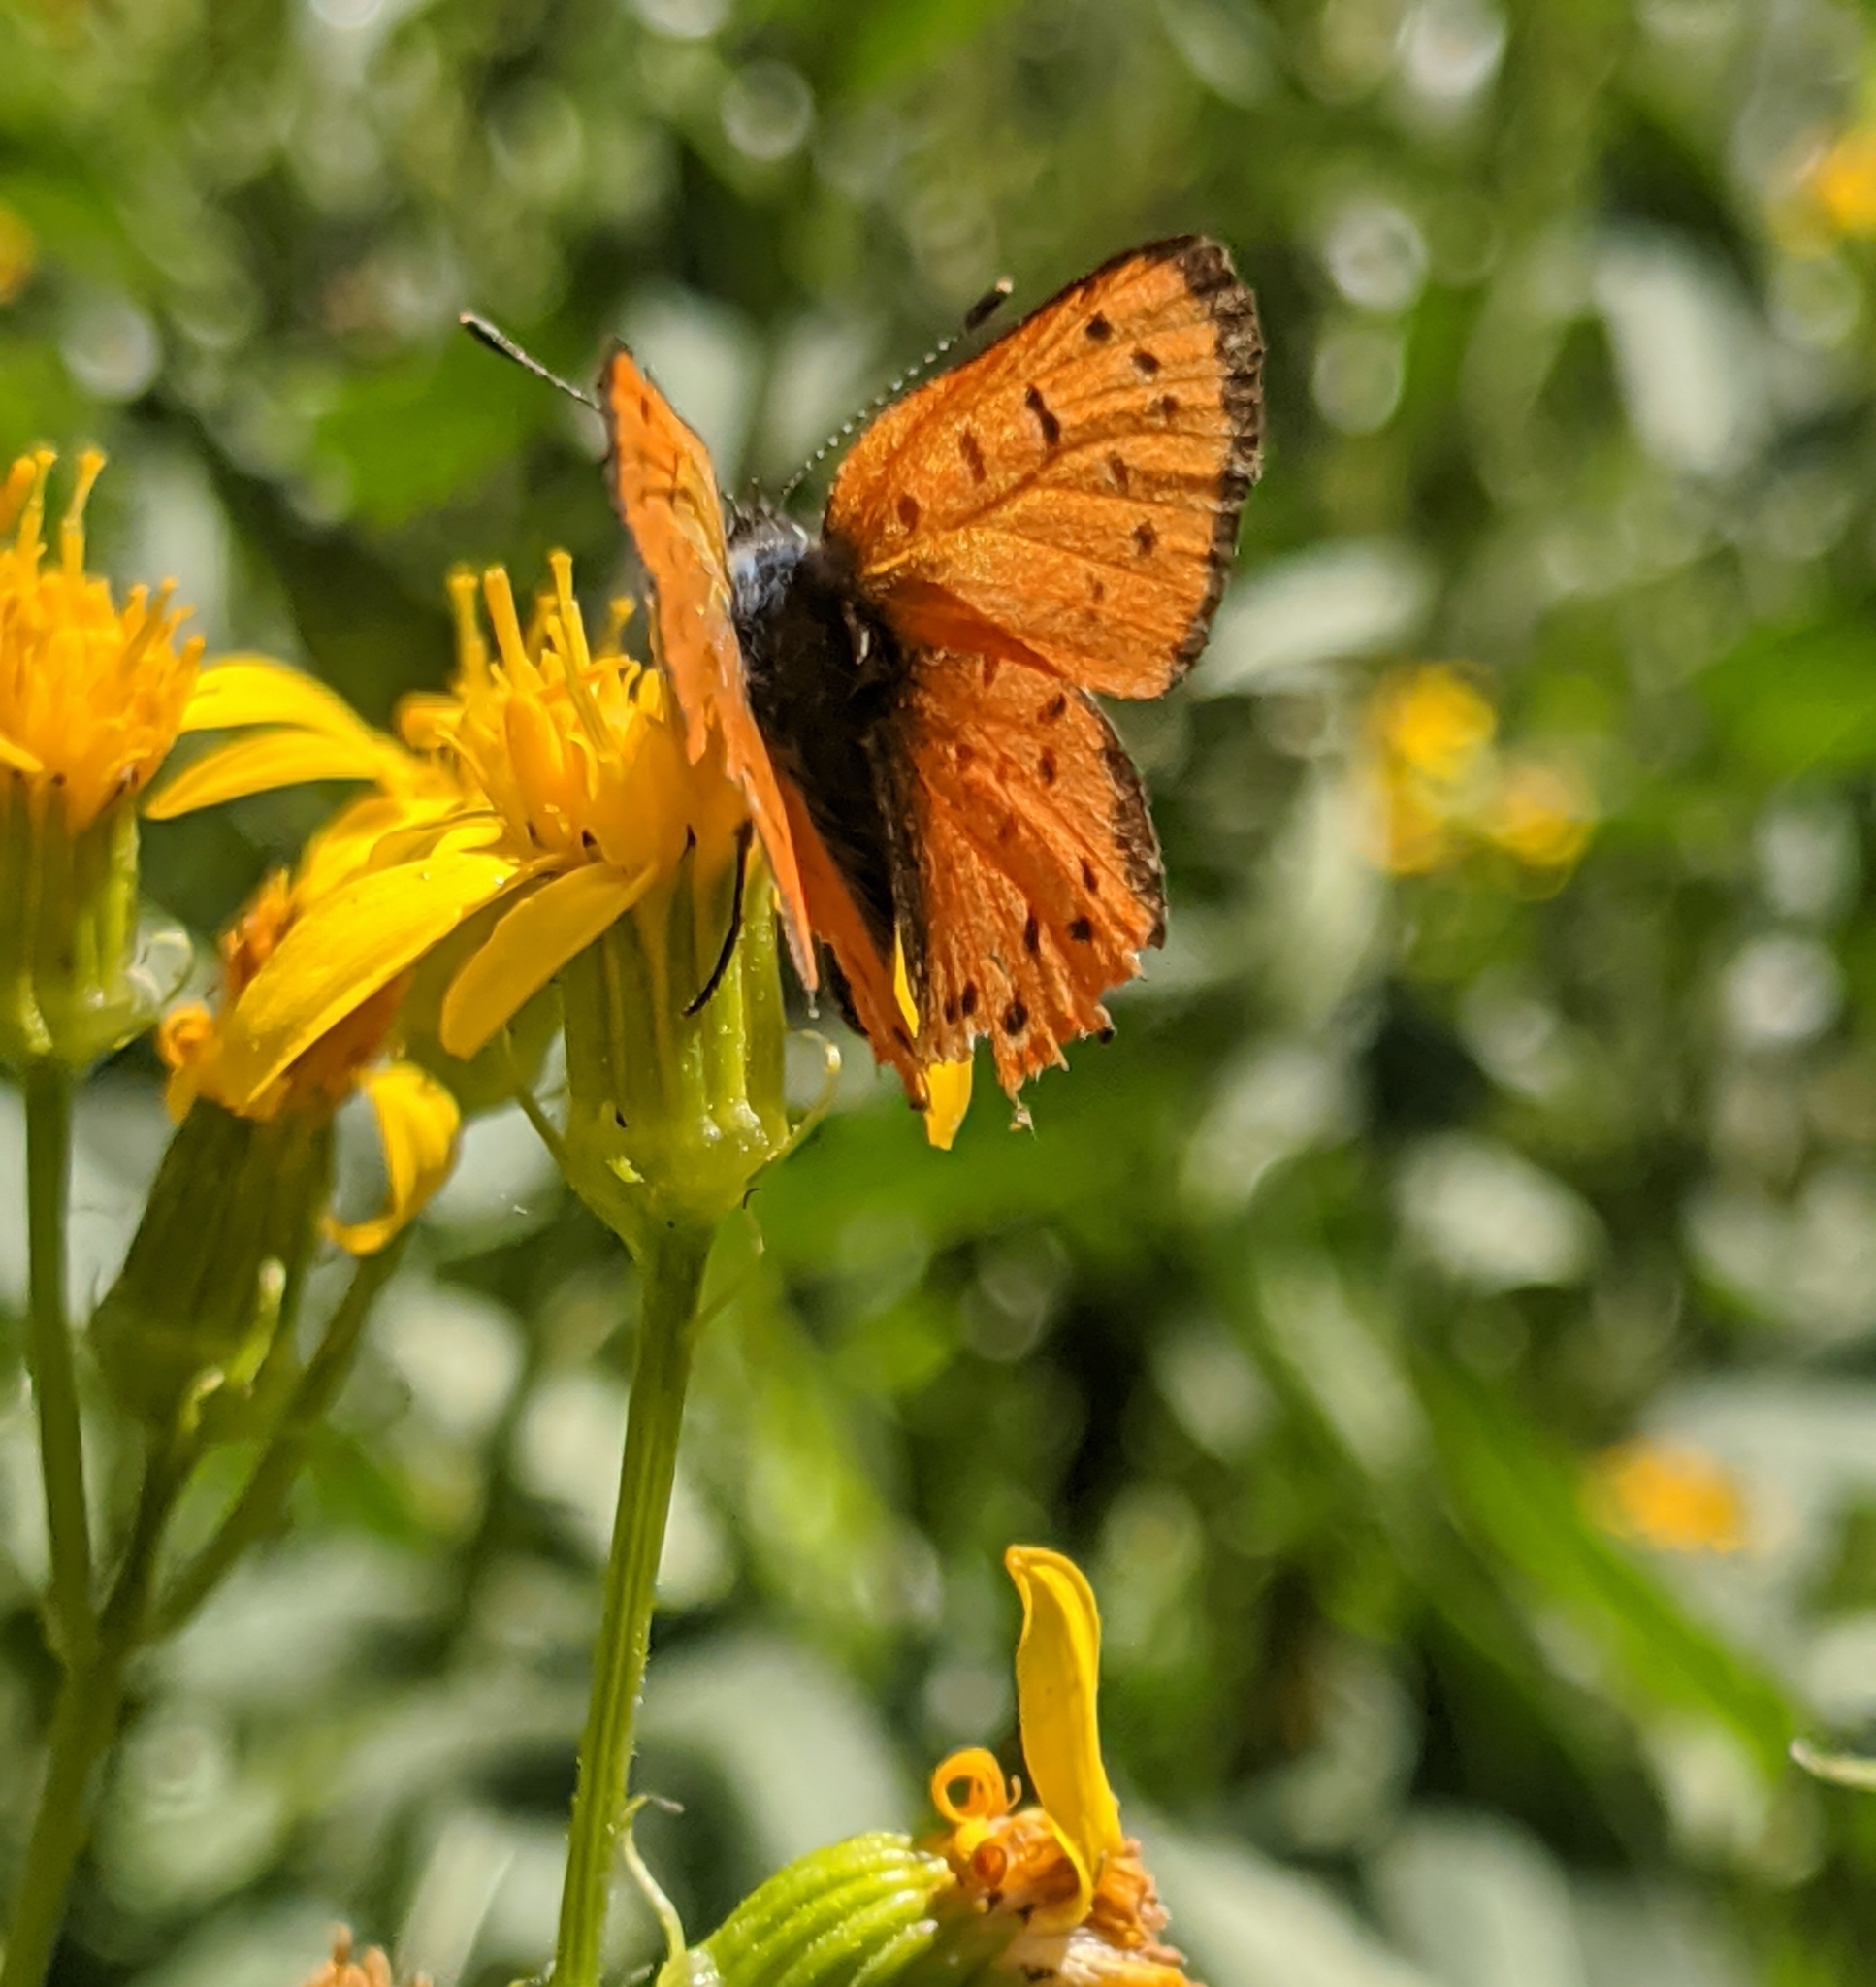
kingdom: Animalia
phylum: Arthropoda
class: Insecta
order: Lepidoptera
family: Lycaenidae
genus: Lycaena
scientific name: Lycaena cupreus
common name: Lustrous copper
